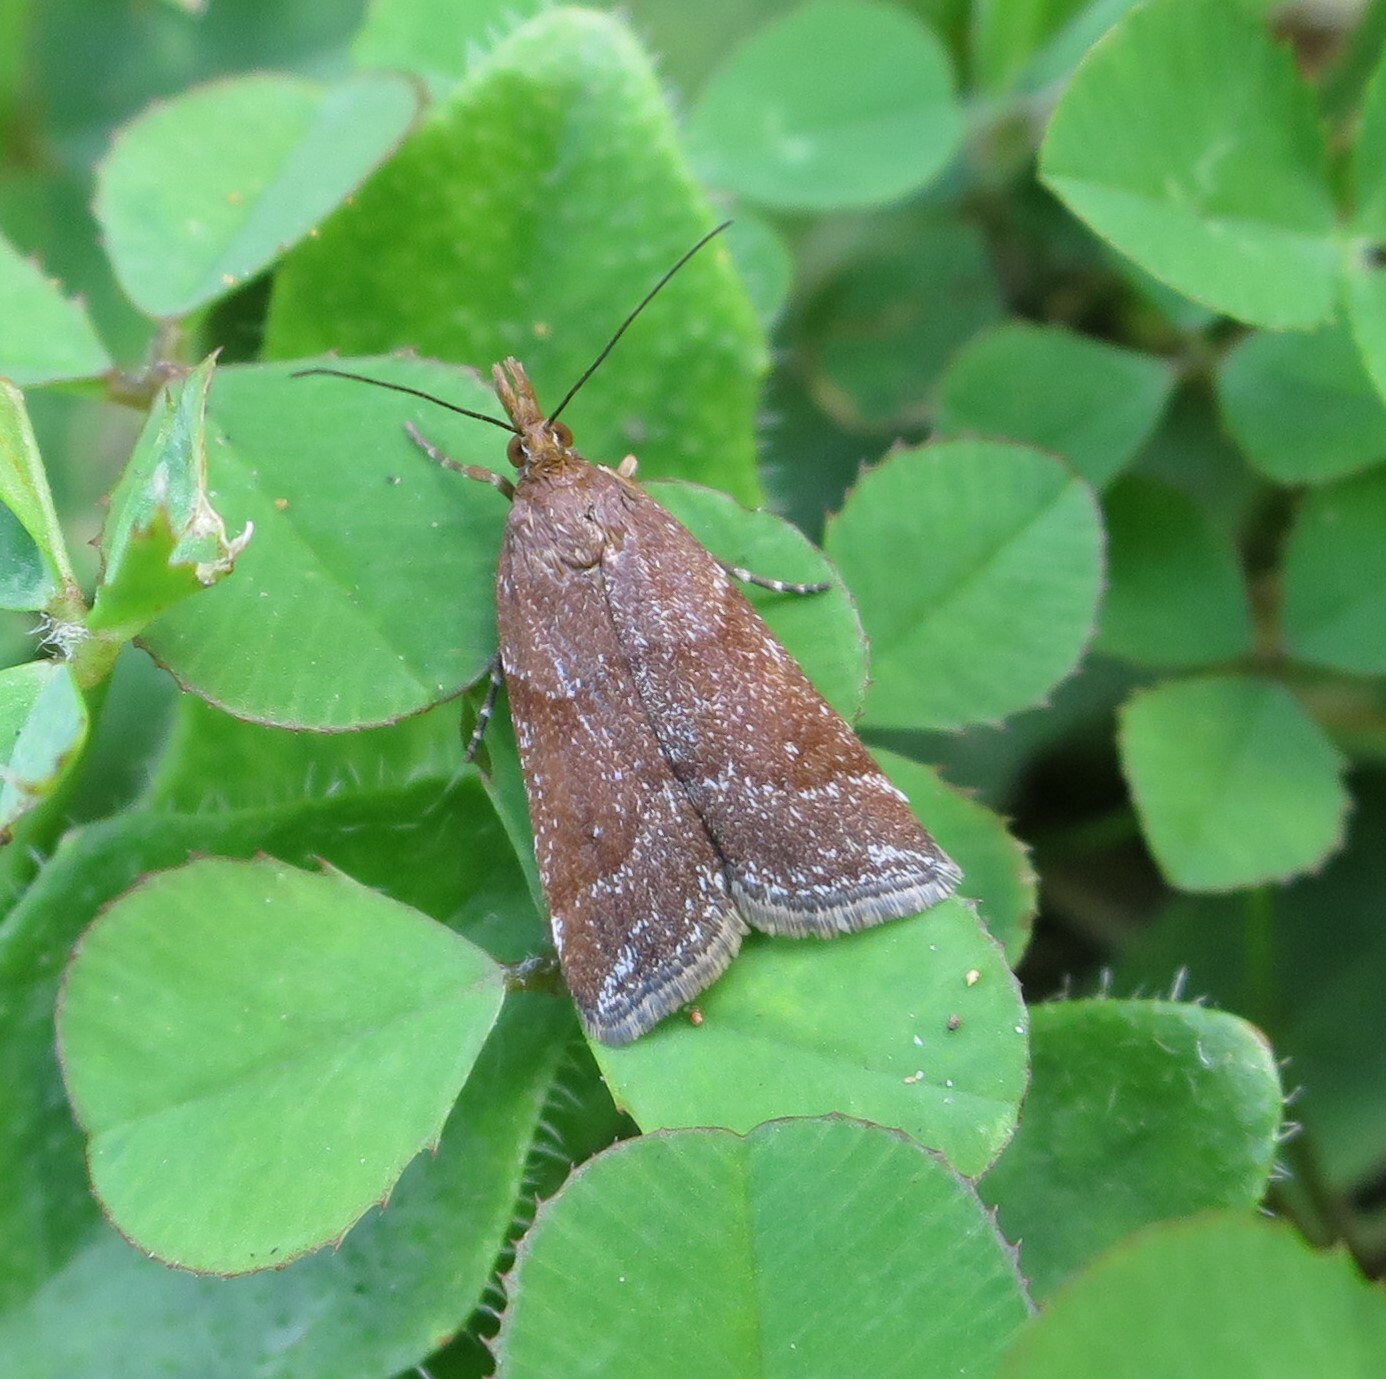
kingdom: Animalia
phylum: Arthropoda
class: Insecta
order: Lepidoptera
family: Crambidae
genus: Eudonia
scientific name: Eudonia feredayi
